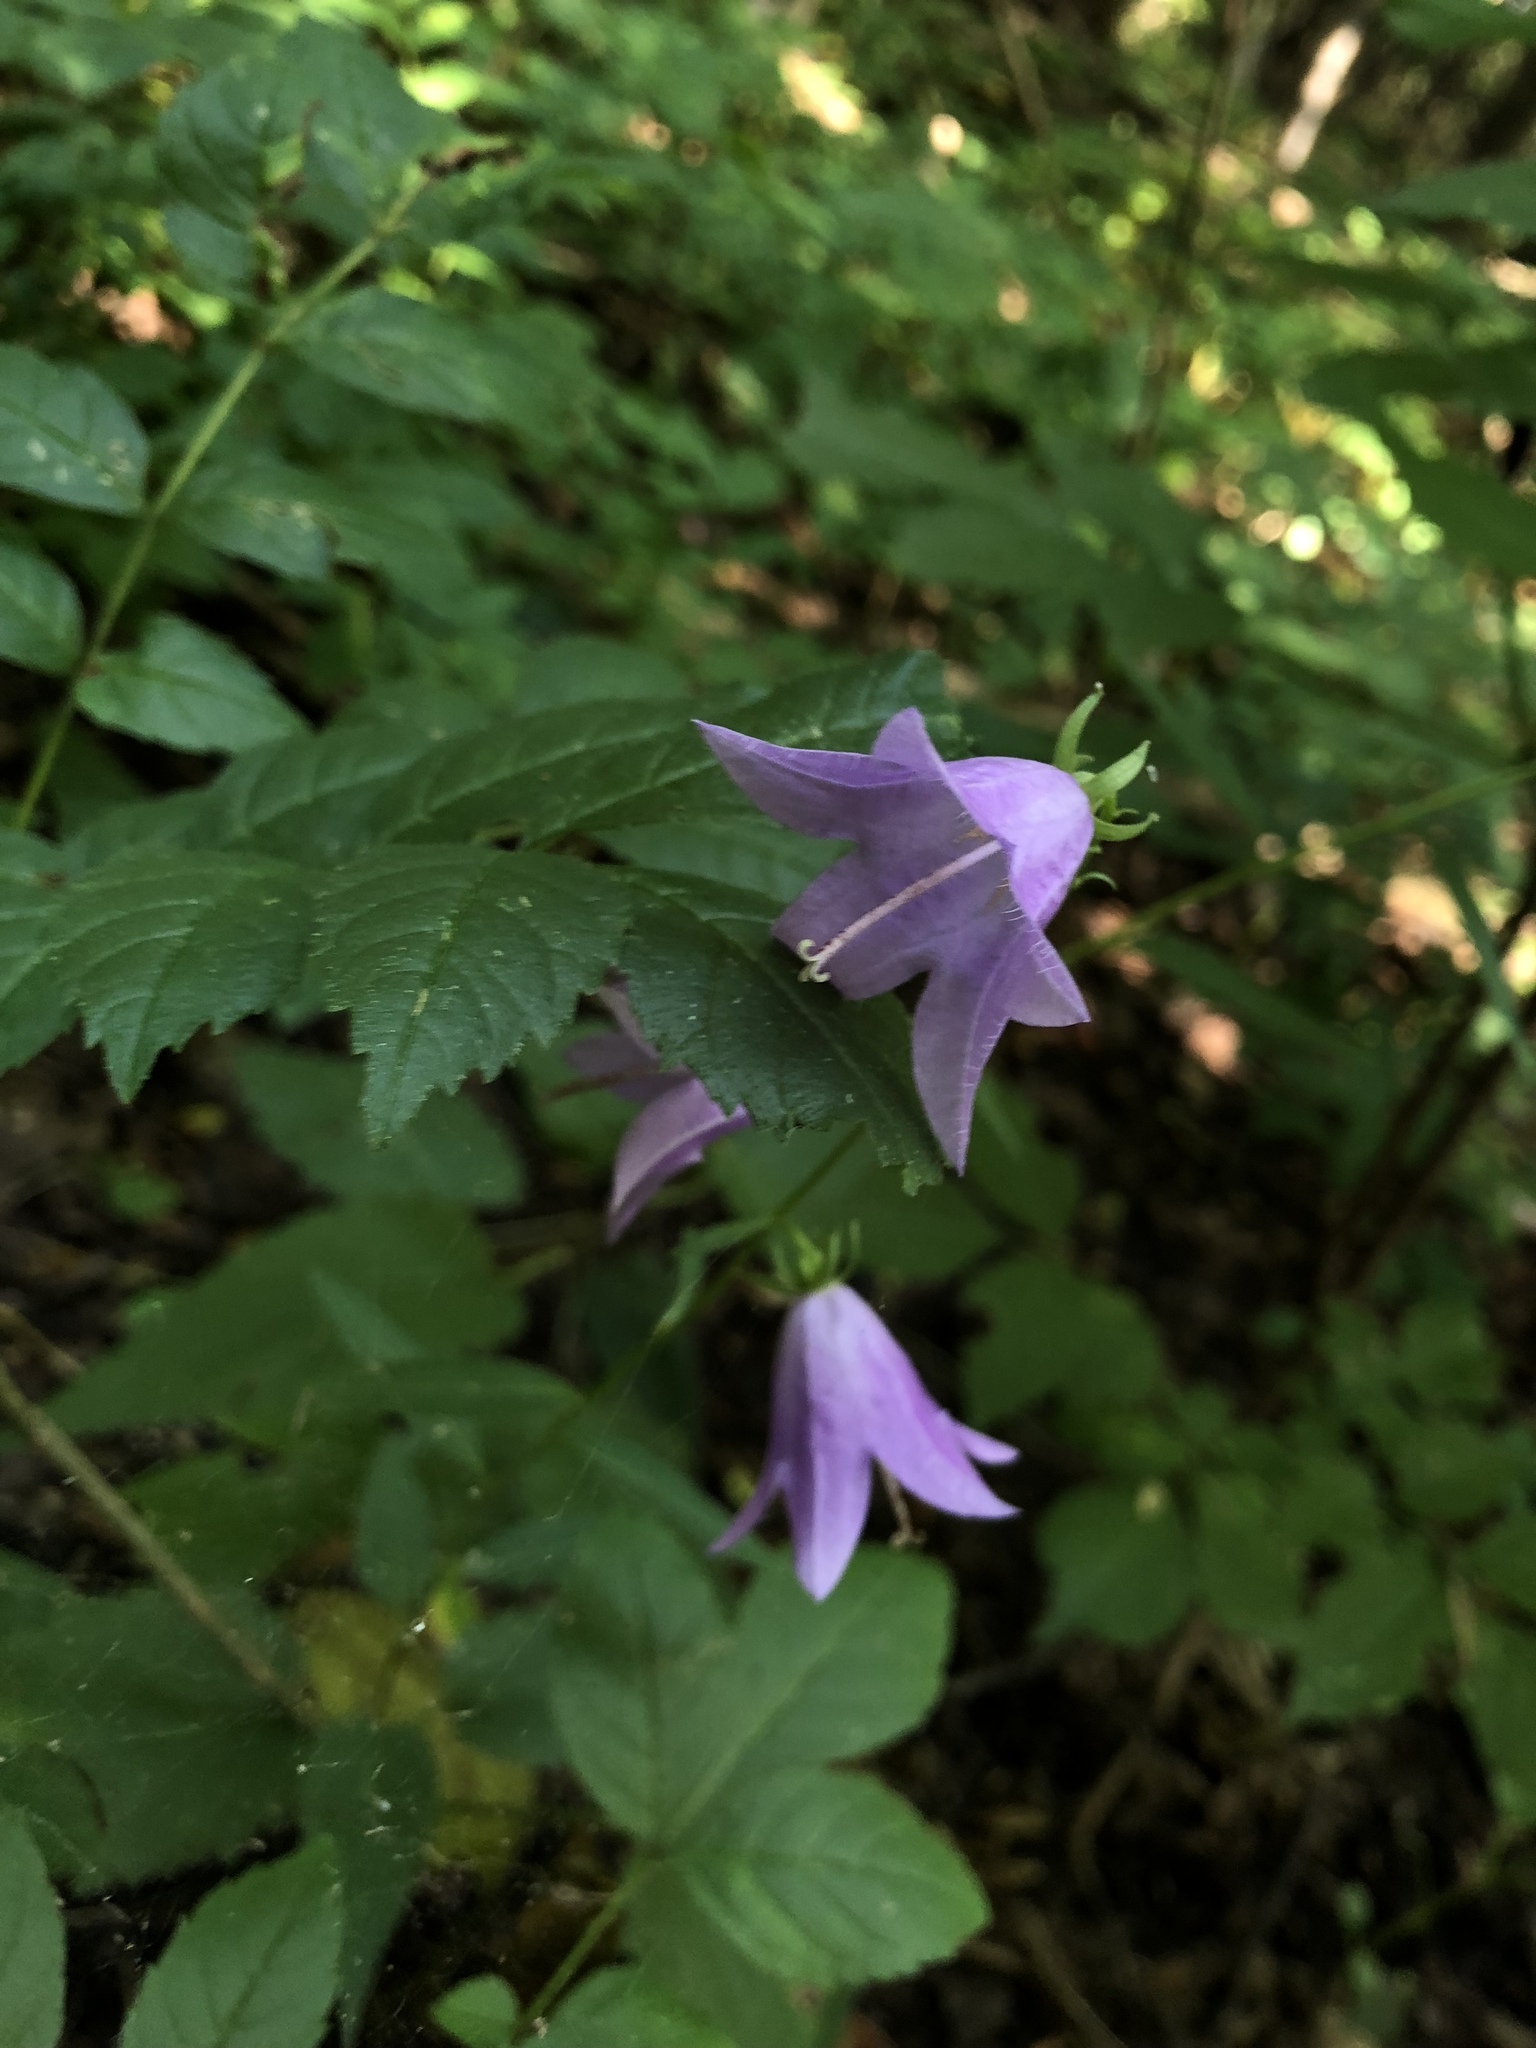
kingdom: Plantae
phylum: Tracheophyta
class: Magnoliopsida
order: Asterales
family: Campanulaceae
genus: Campanula
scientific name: Campanula rapunculoides
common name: Creeping bellflower
